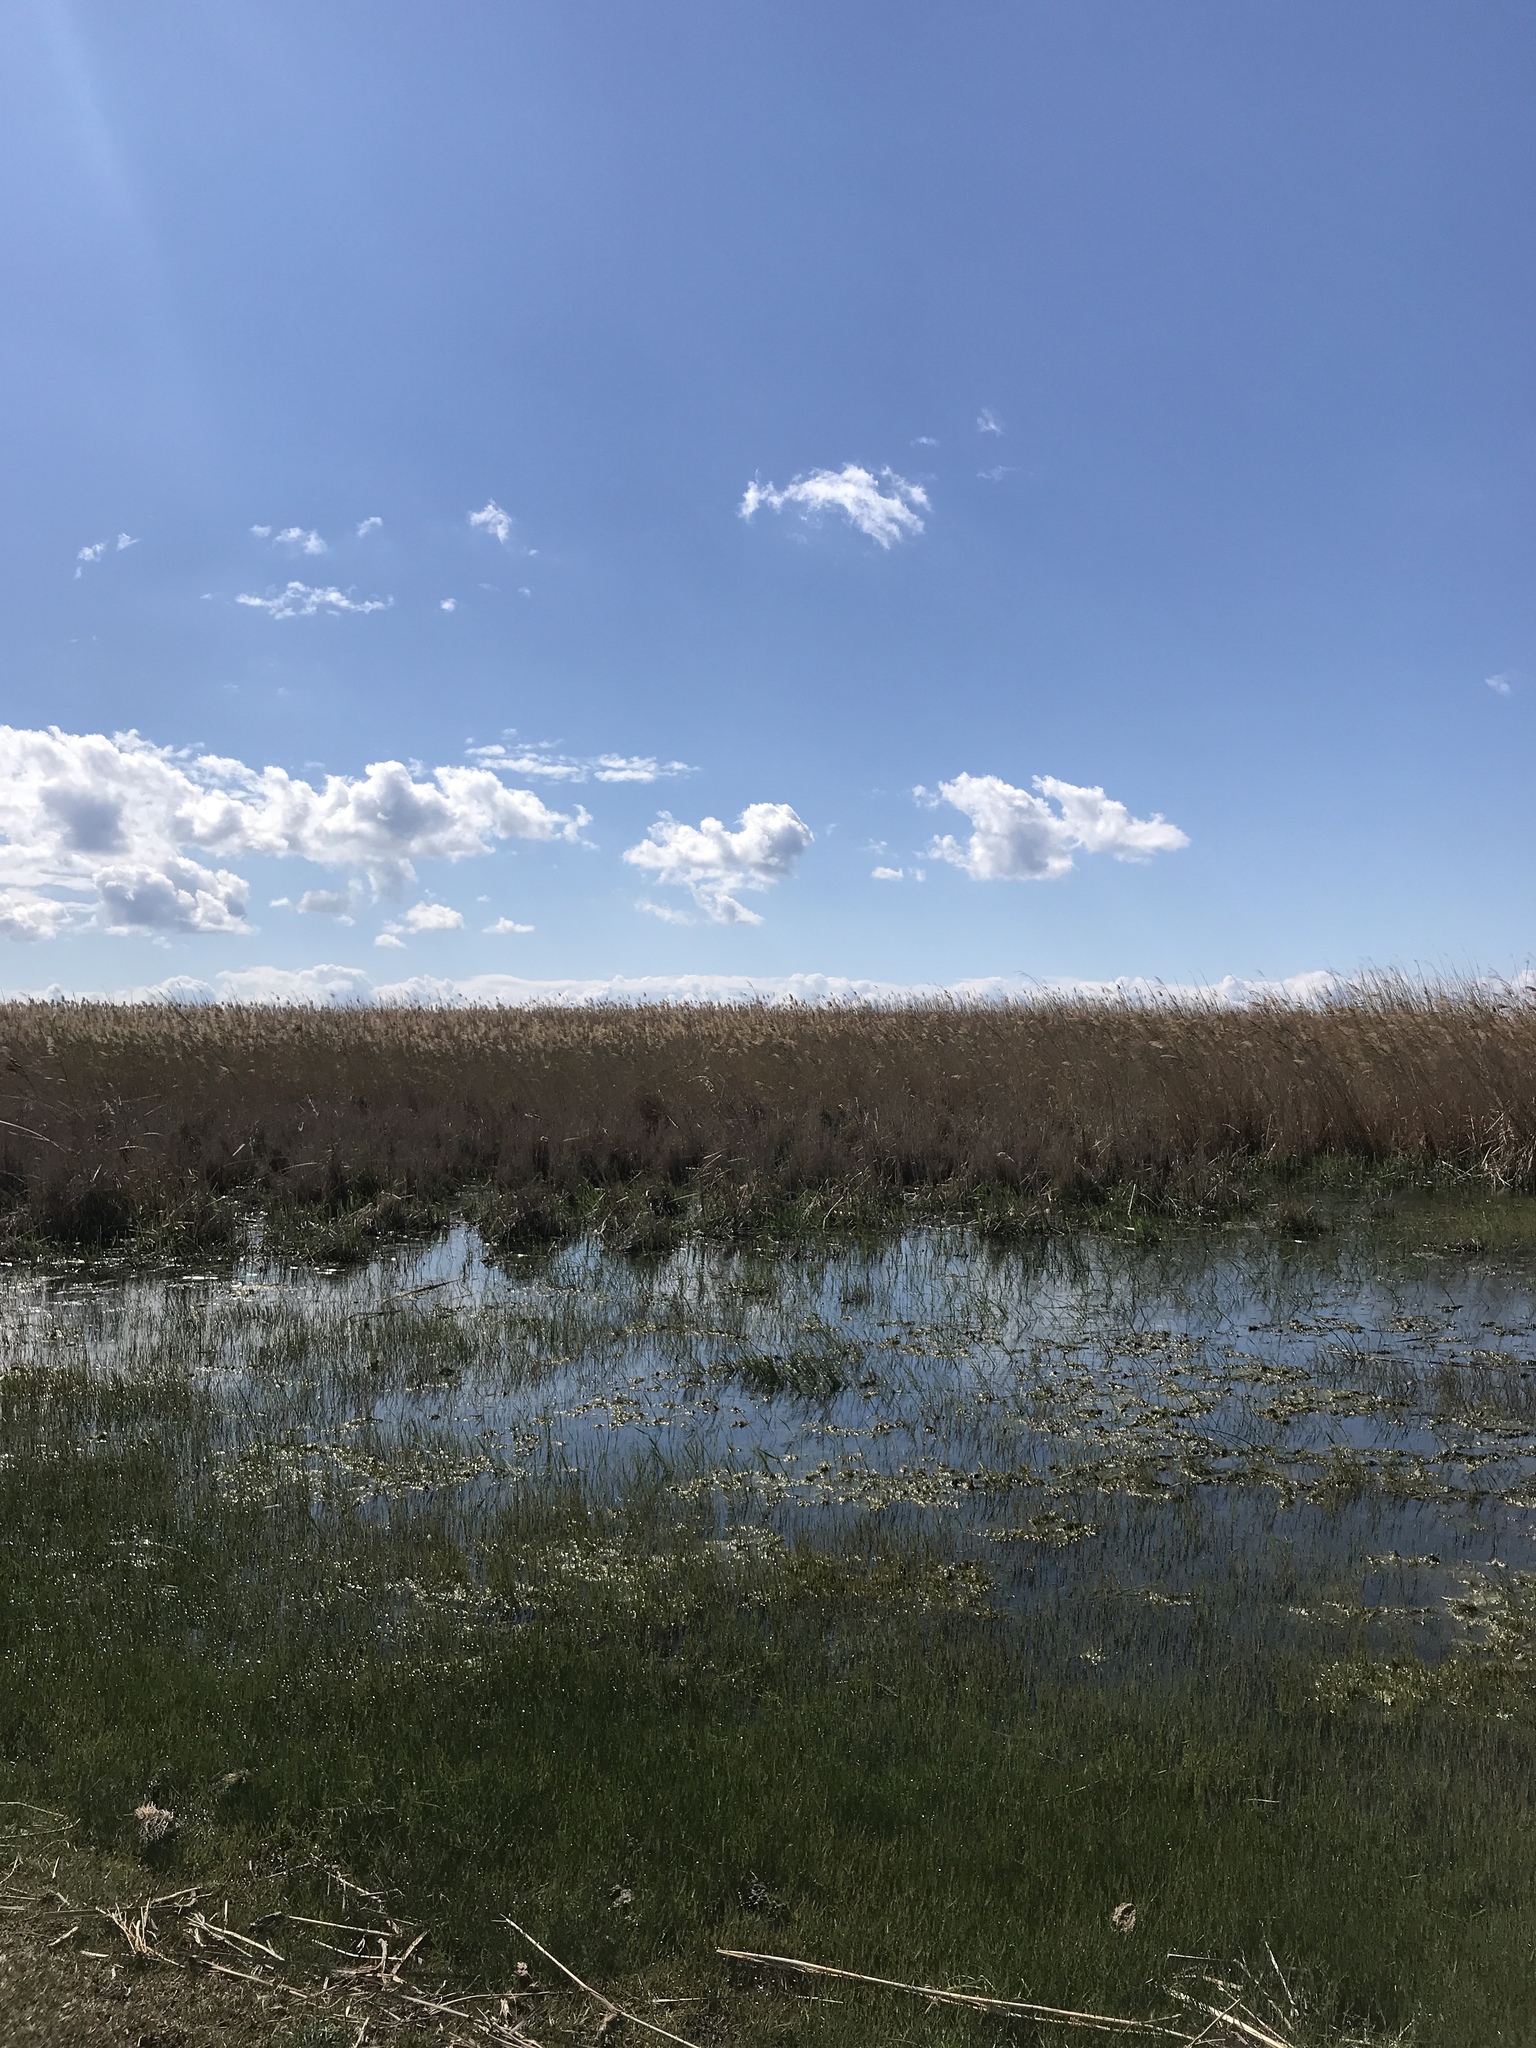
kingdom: Plantae
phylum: Tracheophyta
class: Liliopsida
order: Poales
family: Poaceae
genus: Phragmites
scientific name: Phragmites australis
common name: Common reed
